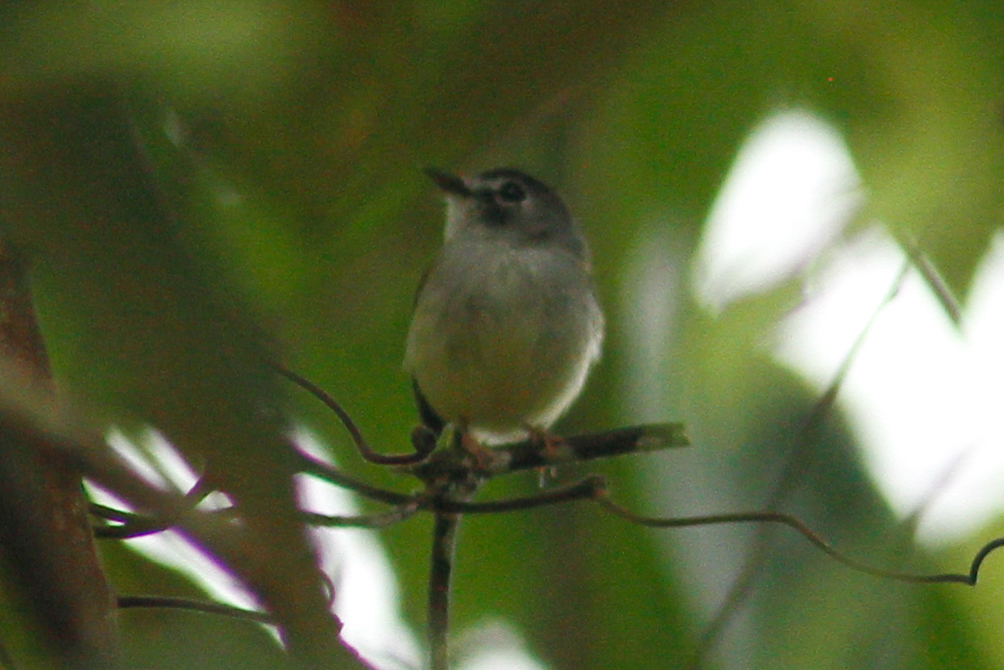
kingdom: Animalia
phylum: Chordata
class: Aves
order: Passeriformes
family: Tyrannidae
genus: Myiornis
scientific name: Myiornis atricapillus
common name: Black-capped pygmy-tyrant
